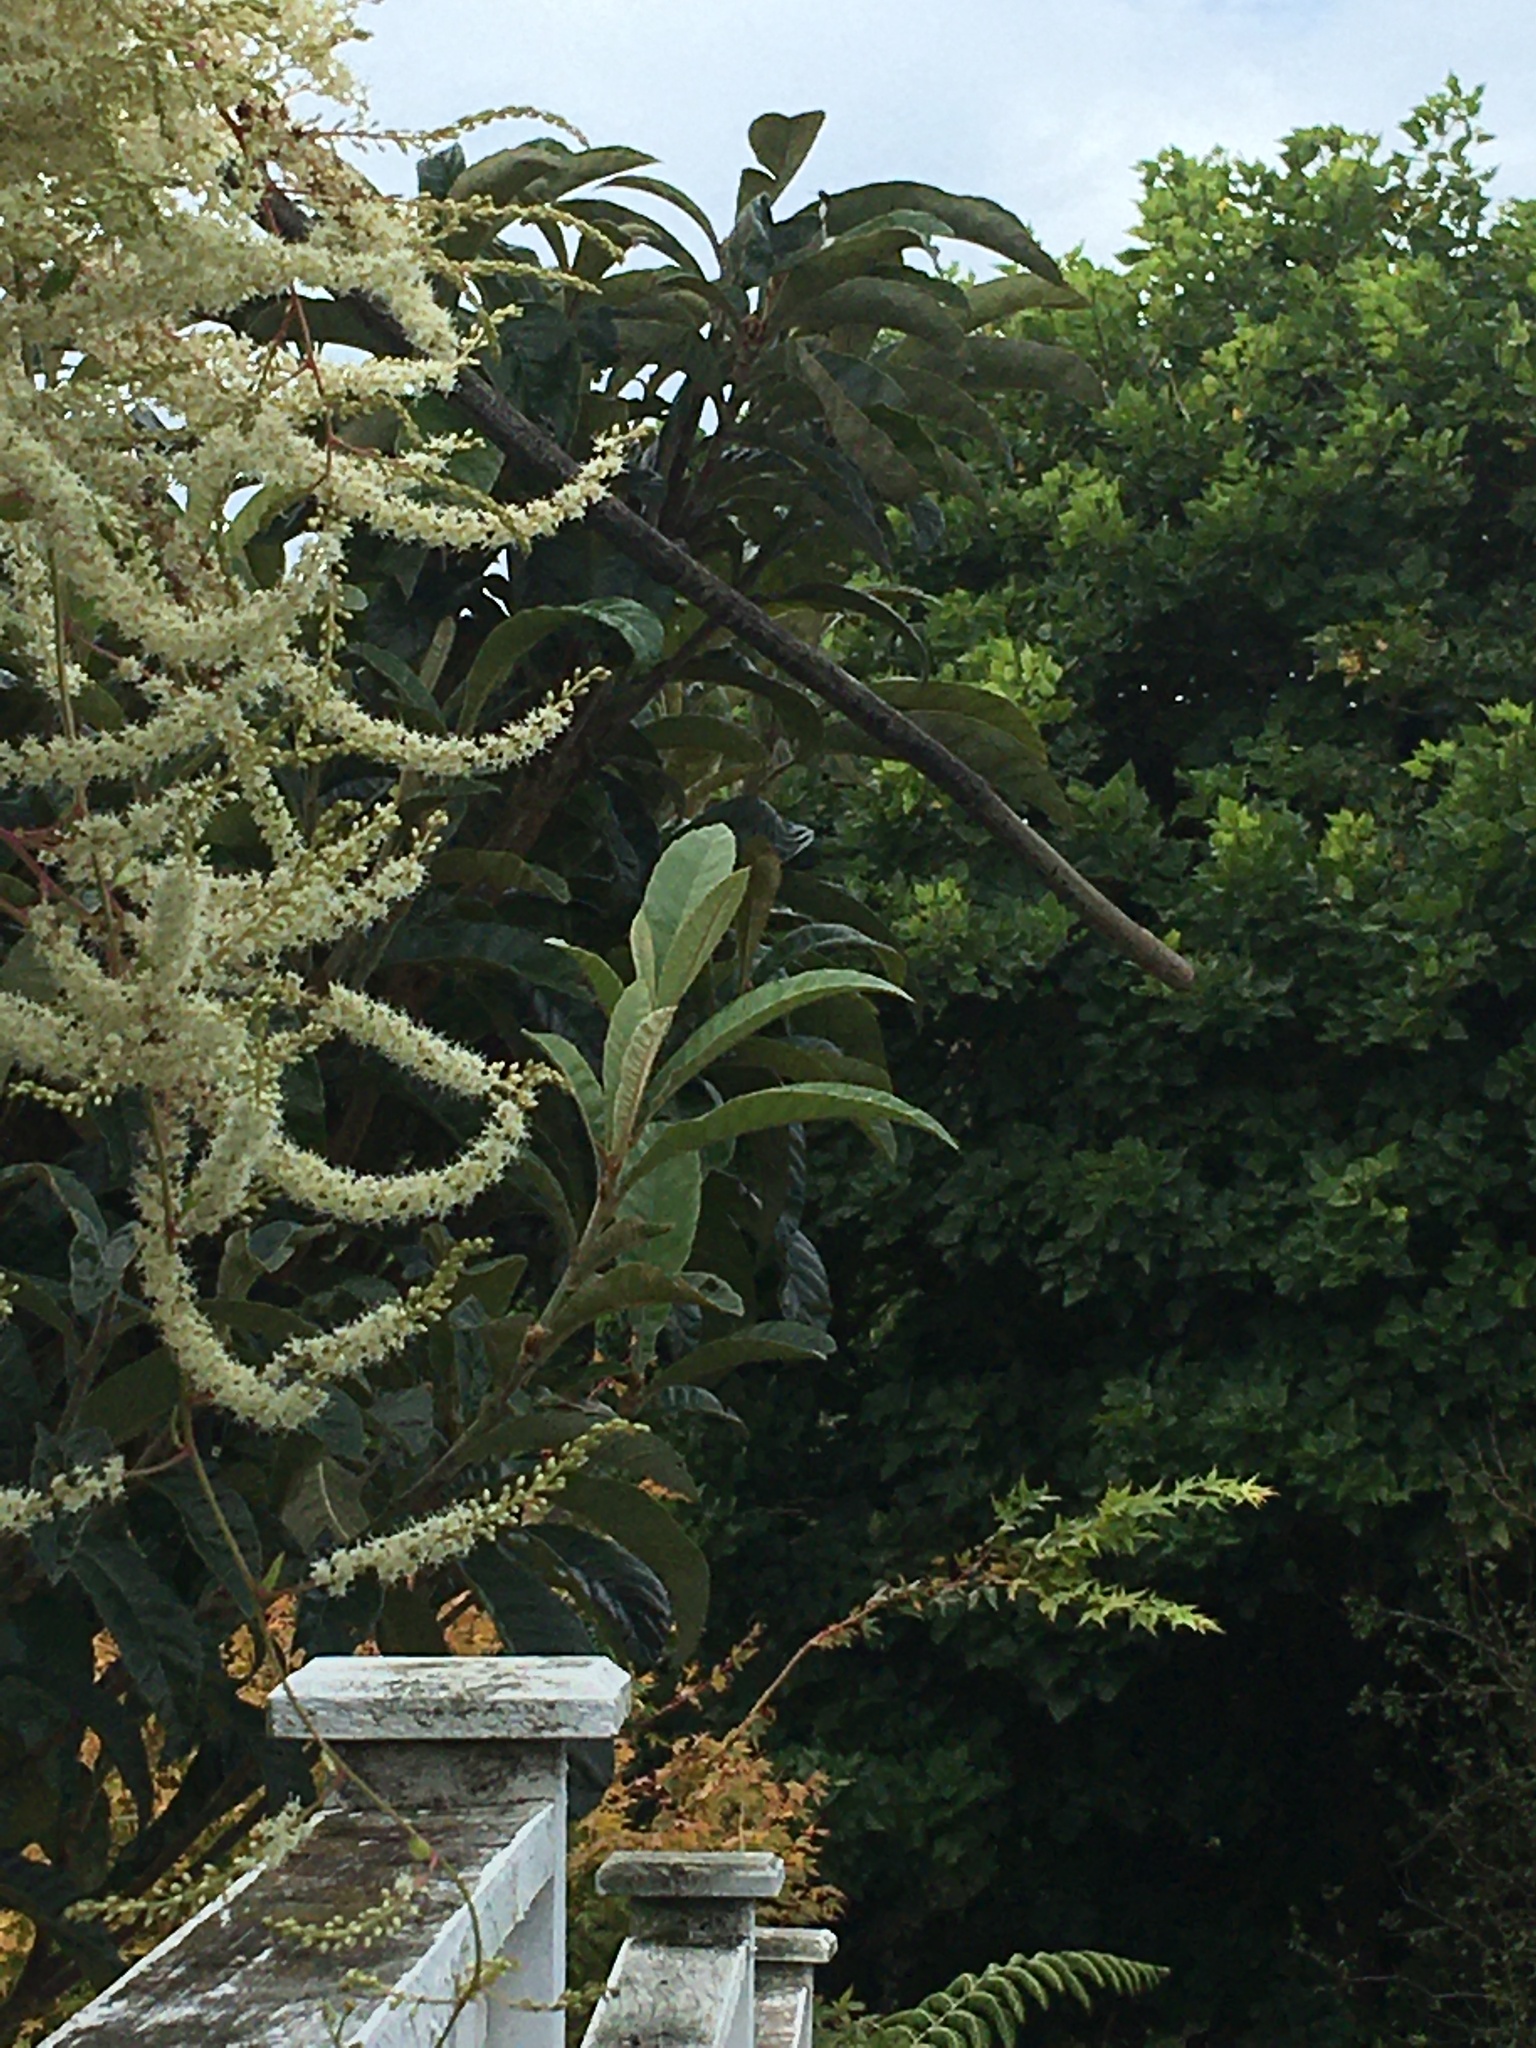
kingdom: Plantae
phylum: Tracheophyta
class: Magnoliopsida
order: Caryophyllales
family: Basellaceae
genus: Anredera
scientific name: Anredera cordifolia
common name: Heartleaf madeiravine
